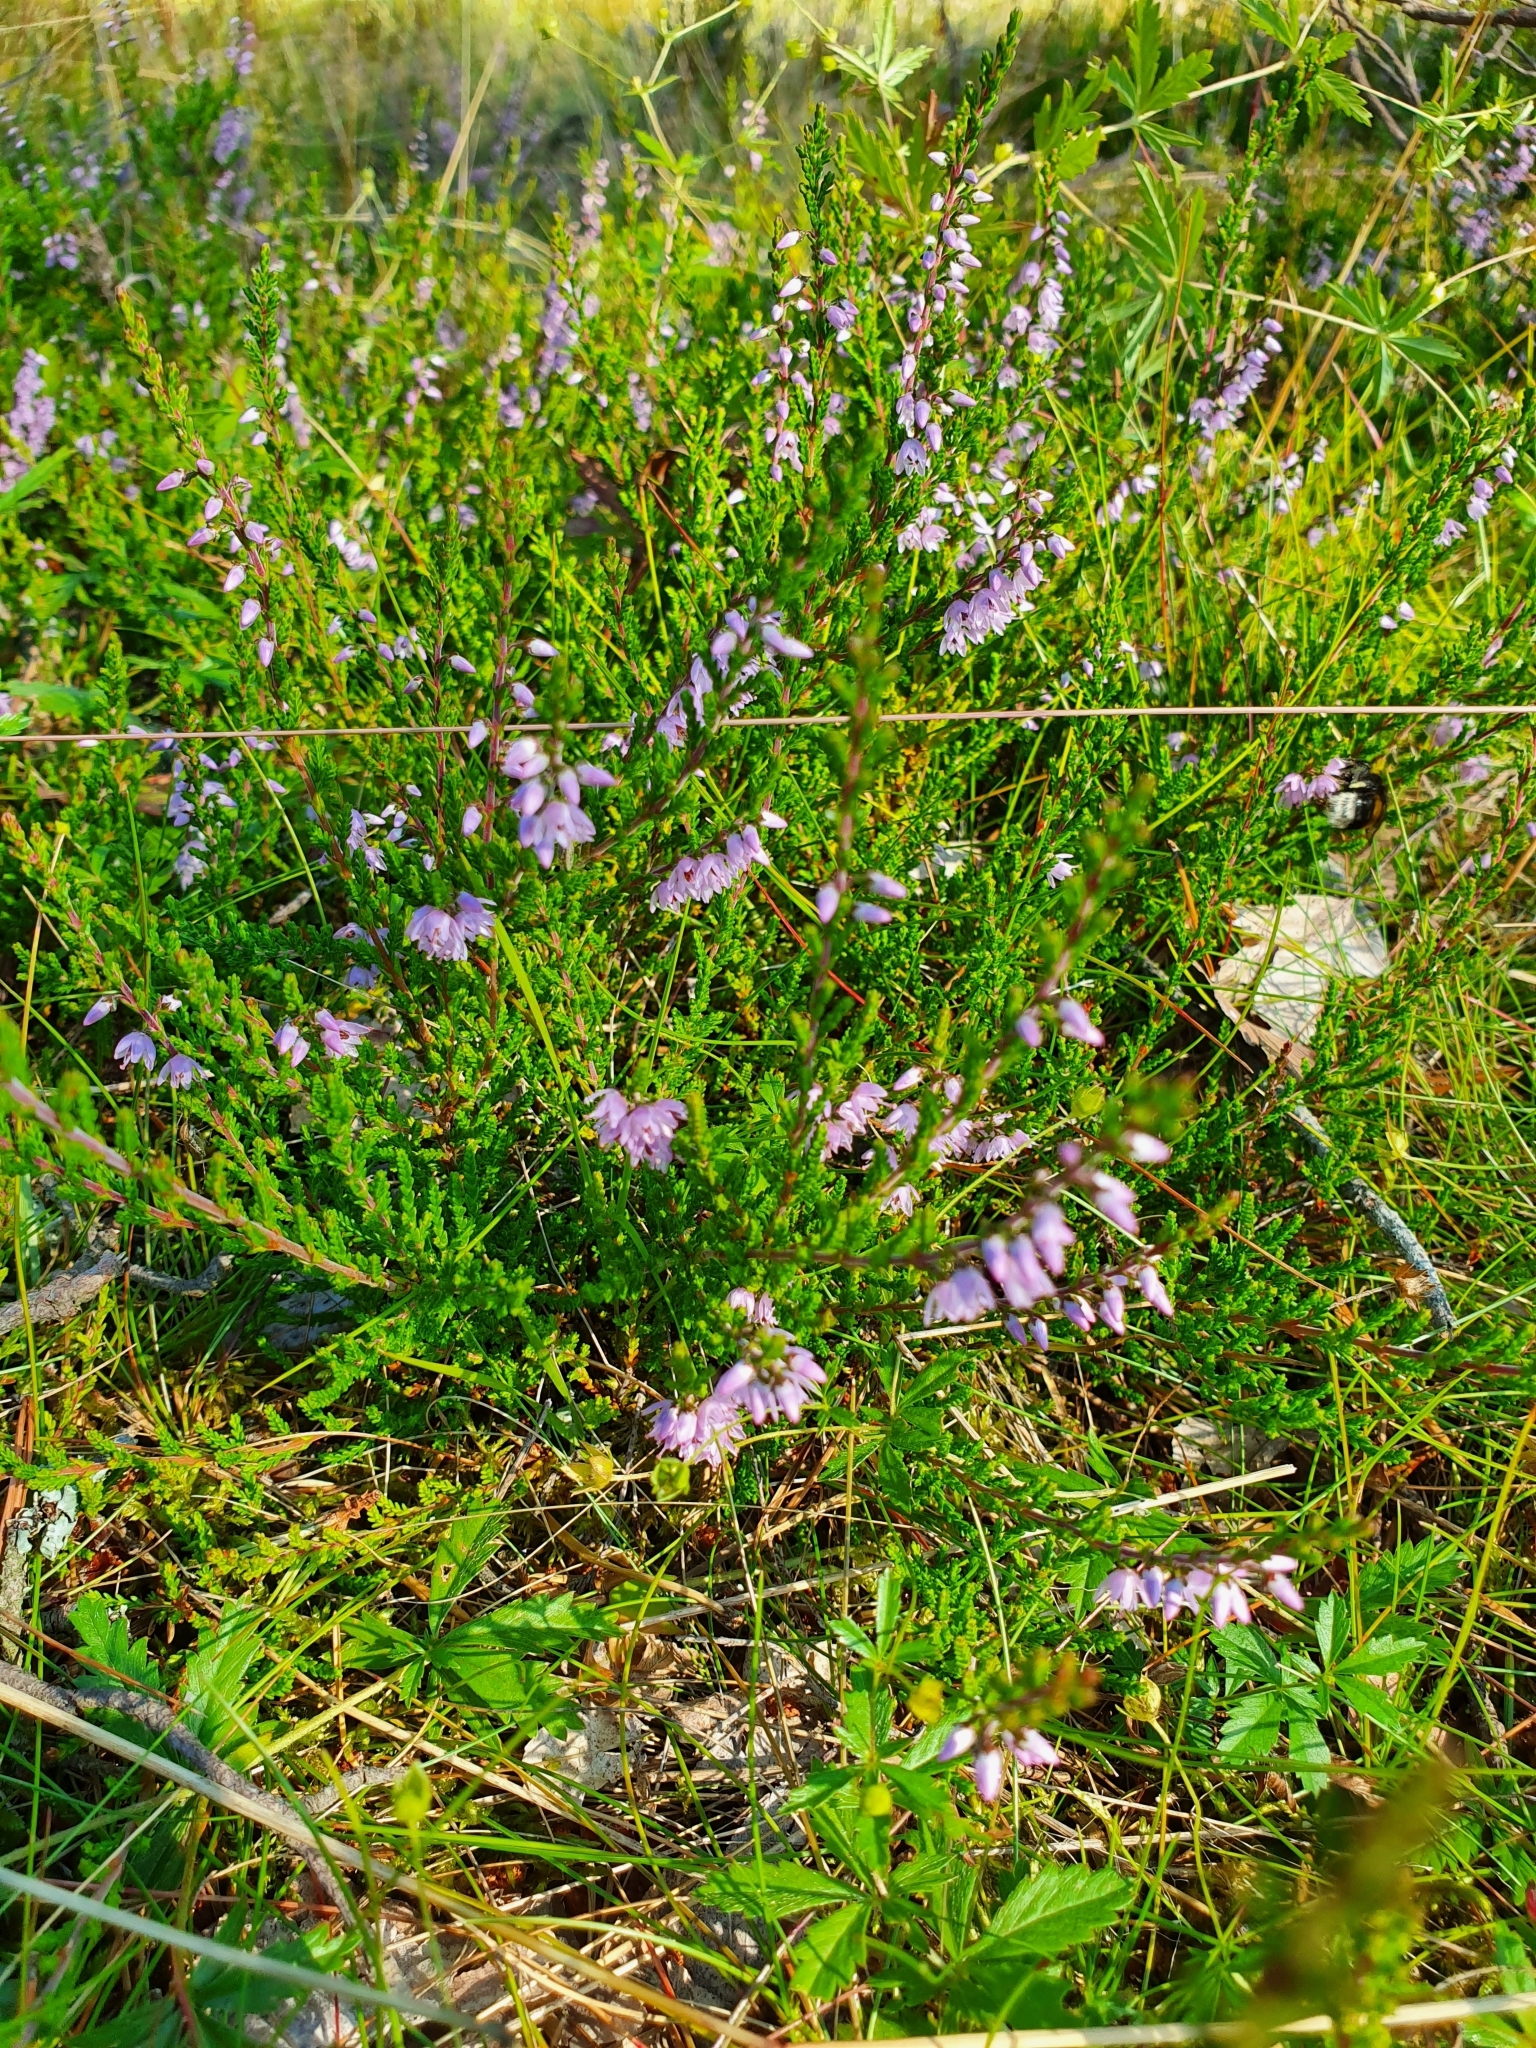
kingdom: Plantae
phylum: Tracheophyta
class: Magnoliopsida
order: Ericales
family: Ericaceae
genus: Calluna
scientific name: Calluna vulgaris
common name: Heather
